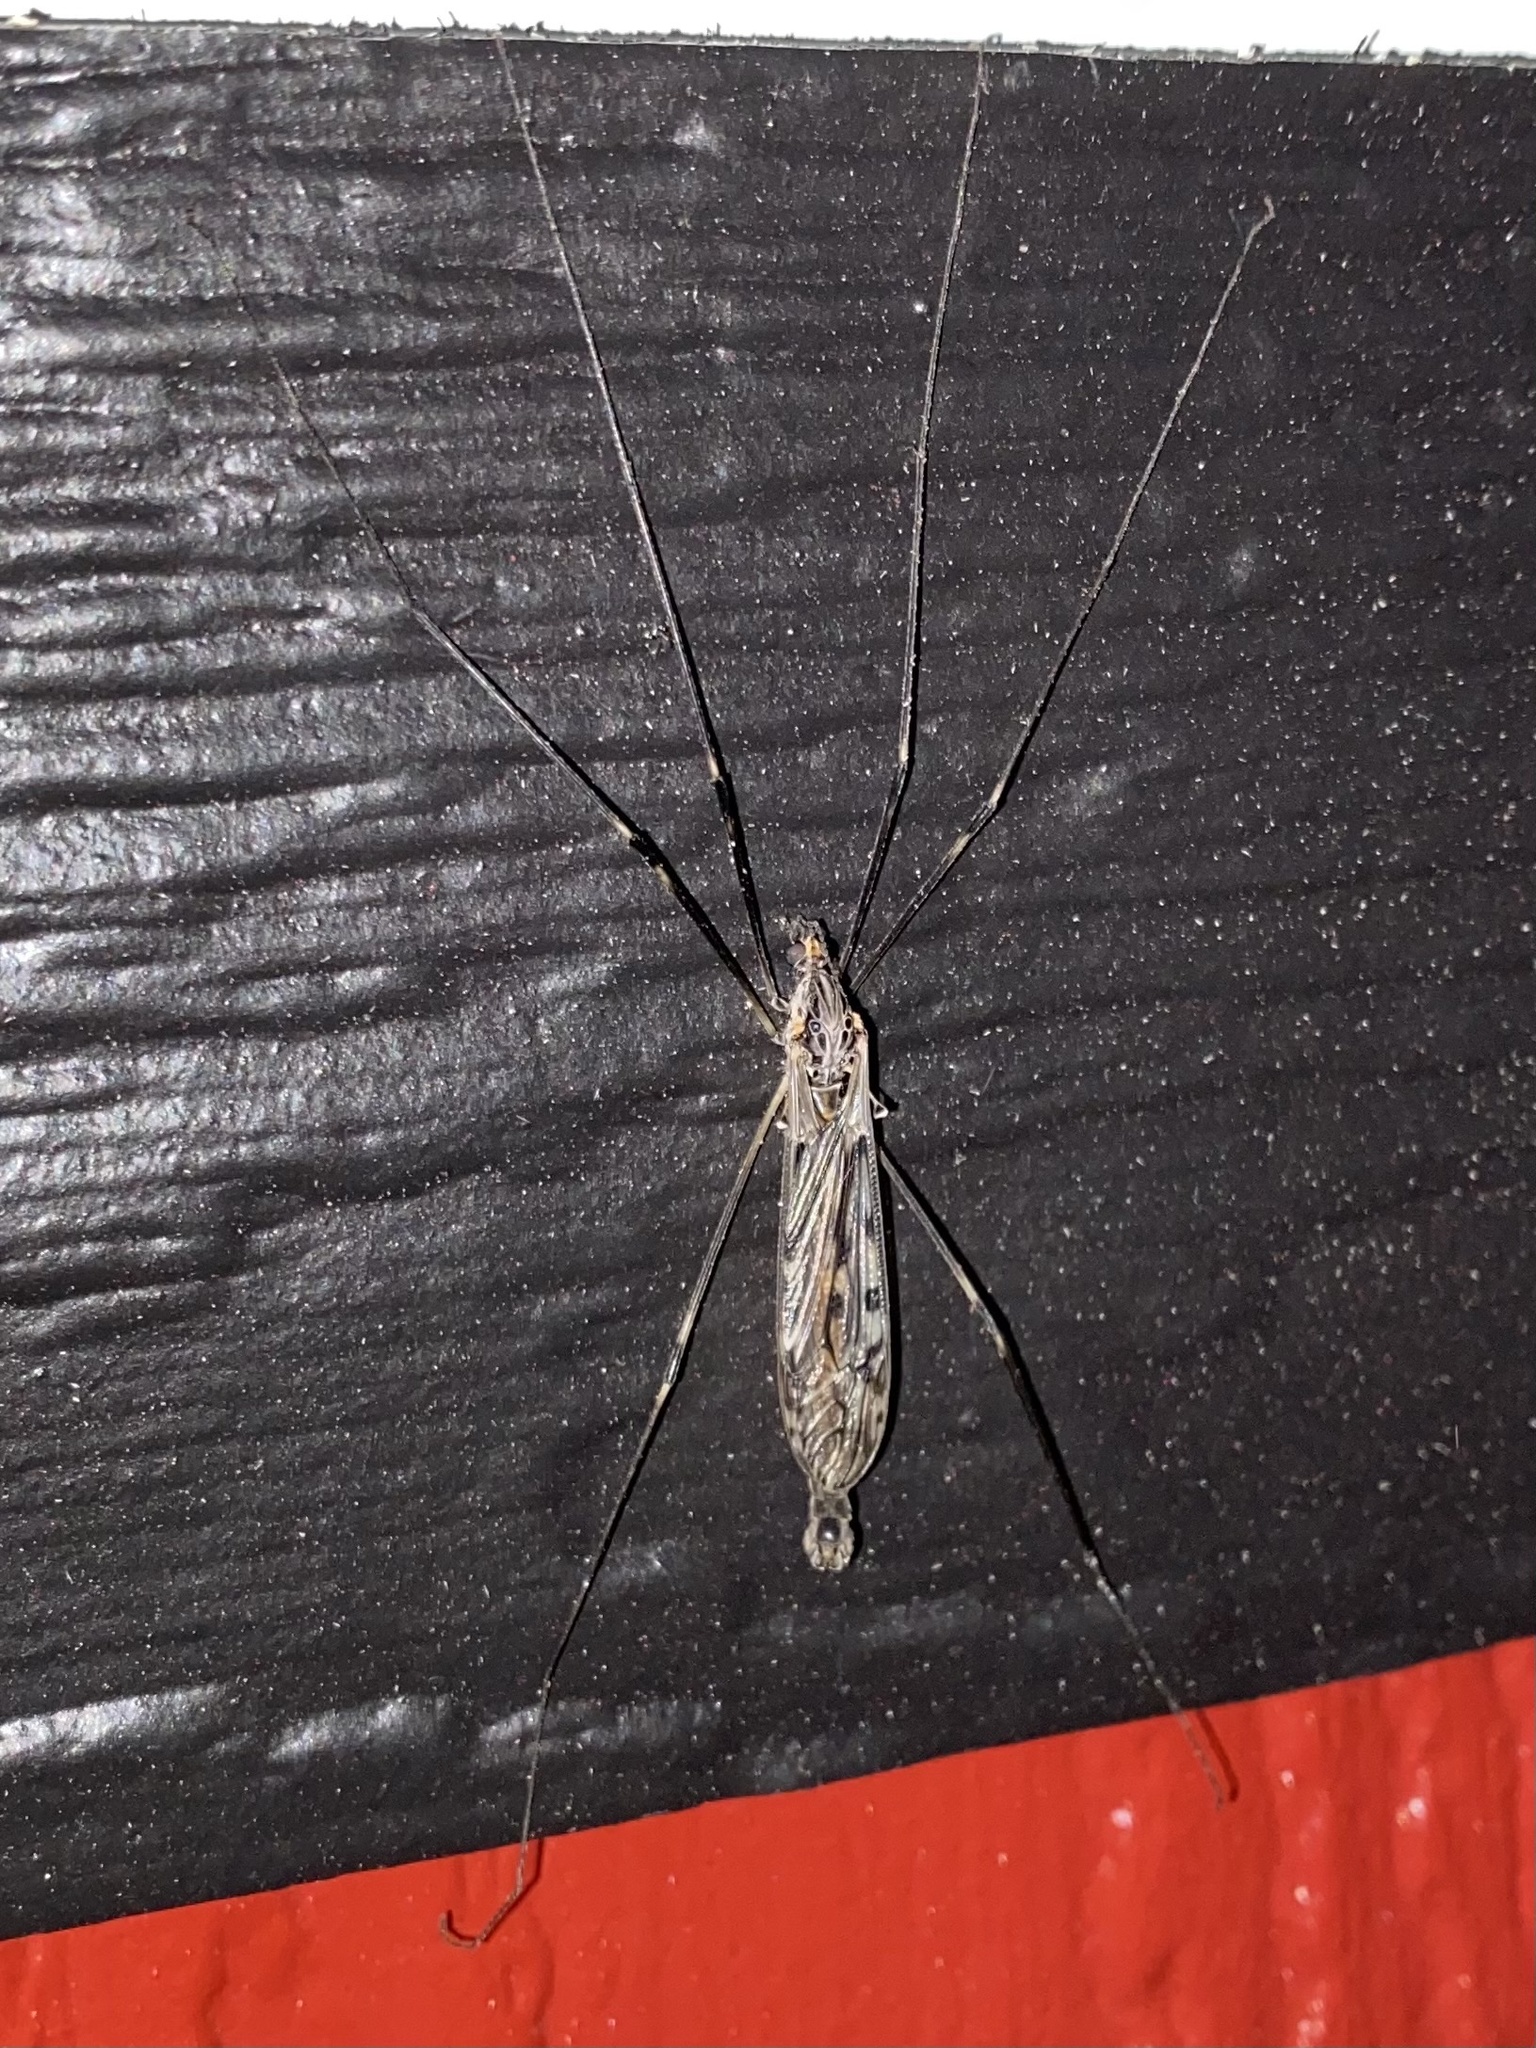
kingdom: Animalia
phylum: Arthropoda
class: Insecta
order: Diptera
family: Tipulidae
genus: Tipula
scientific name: Tipula abdominalis
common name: Giant crane fly
